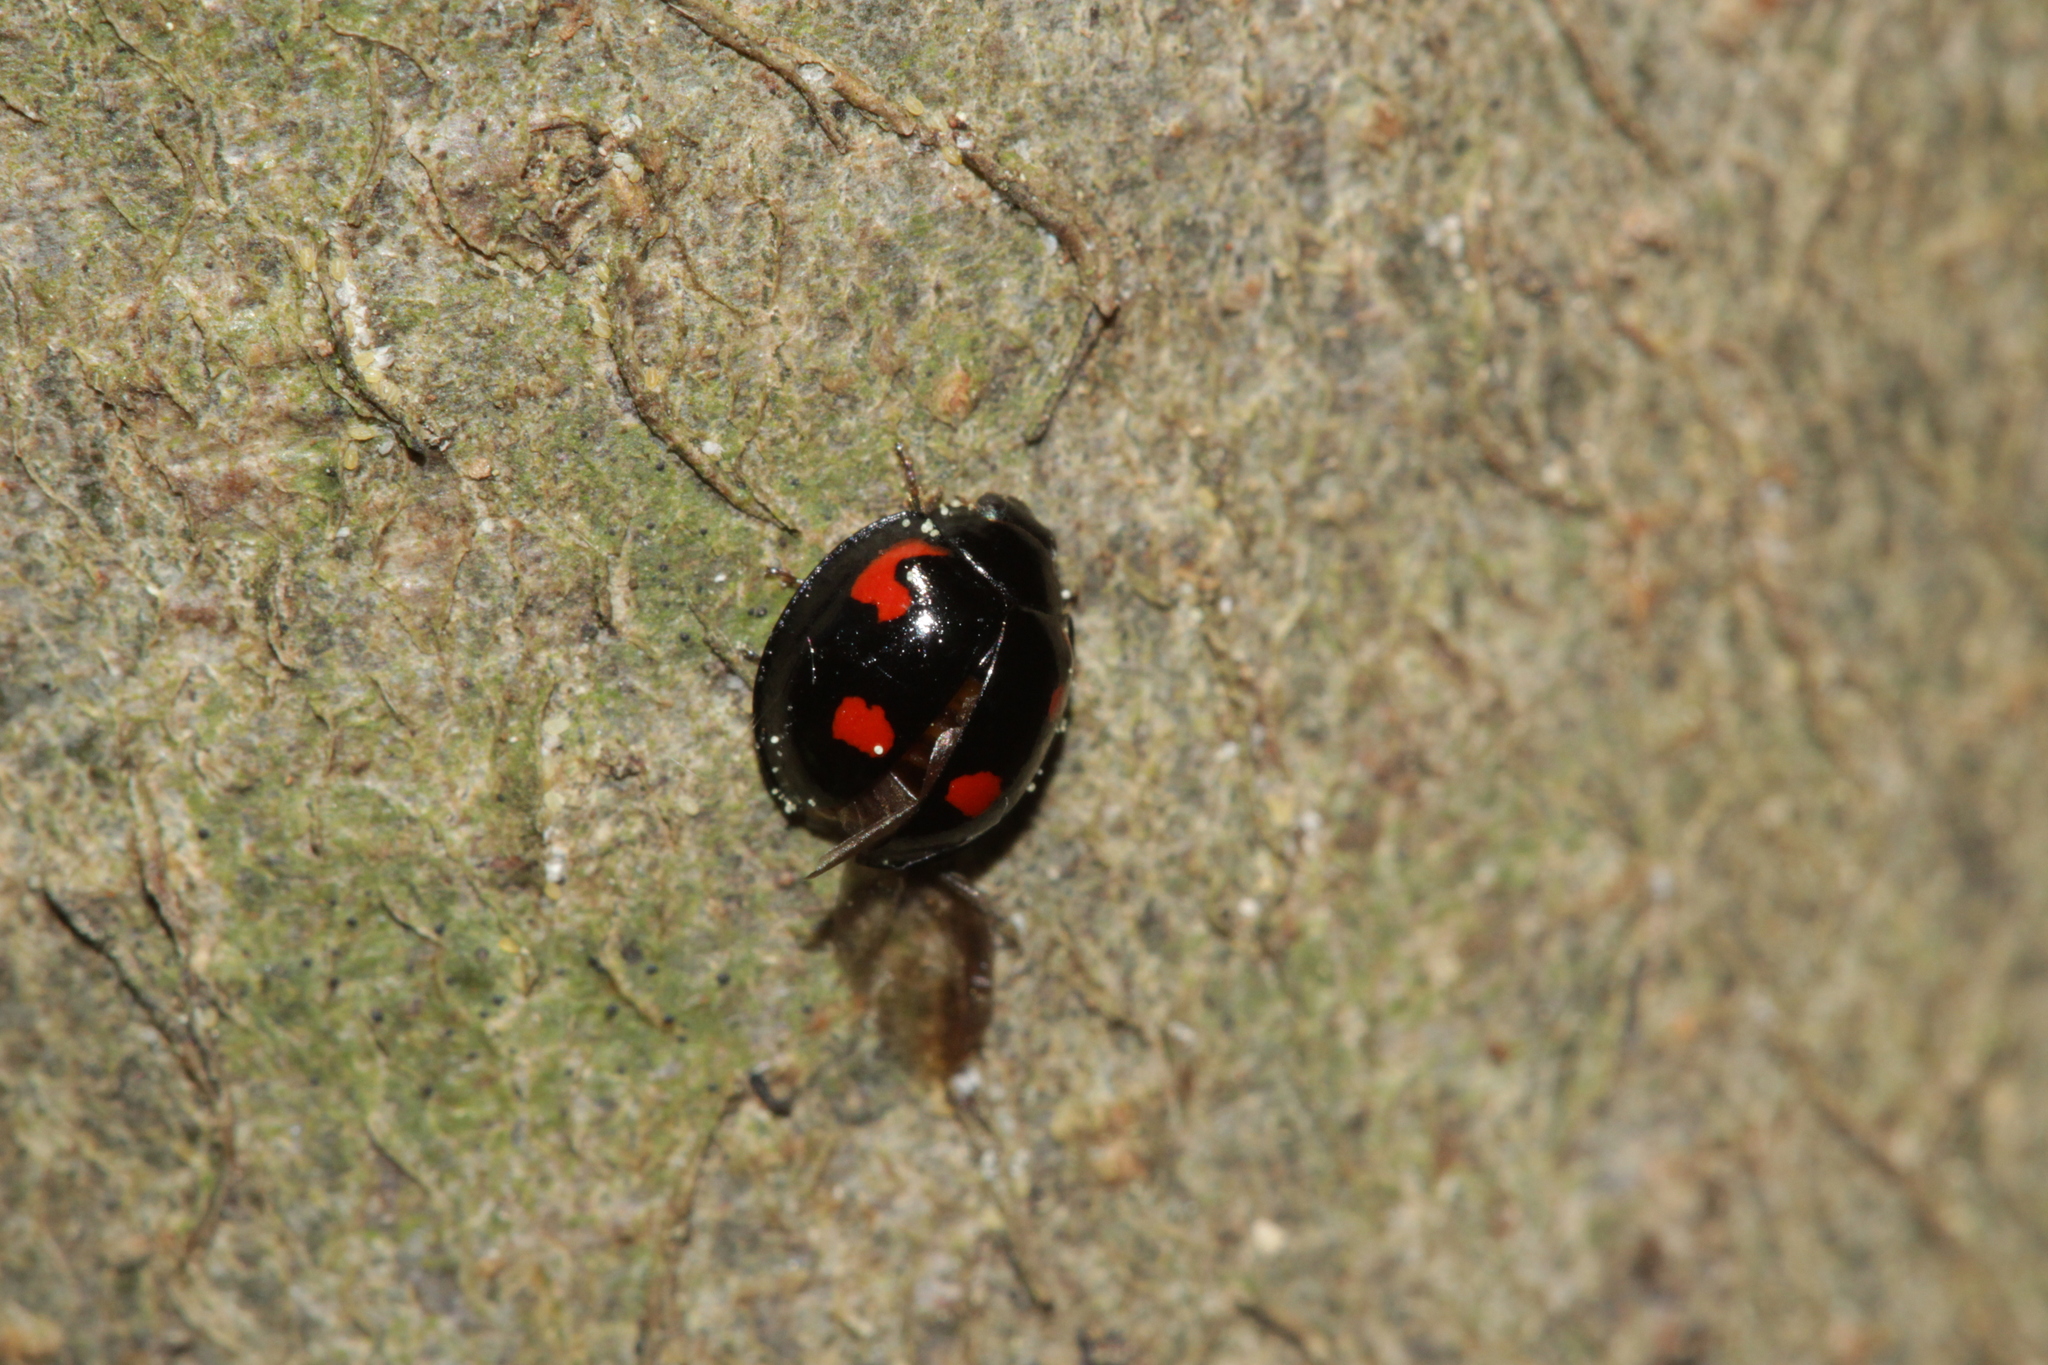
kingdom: Animalia
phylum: Arthropoda
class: Insecta
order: Coleoptera
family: Coccinellidae
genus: Brumus
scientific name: Brumus quadripustulatus
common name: Ladybird beetle
